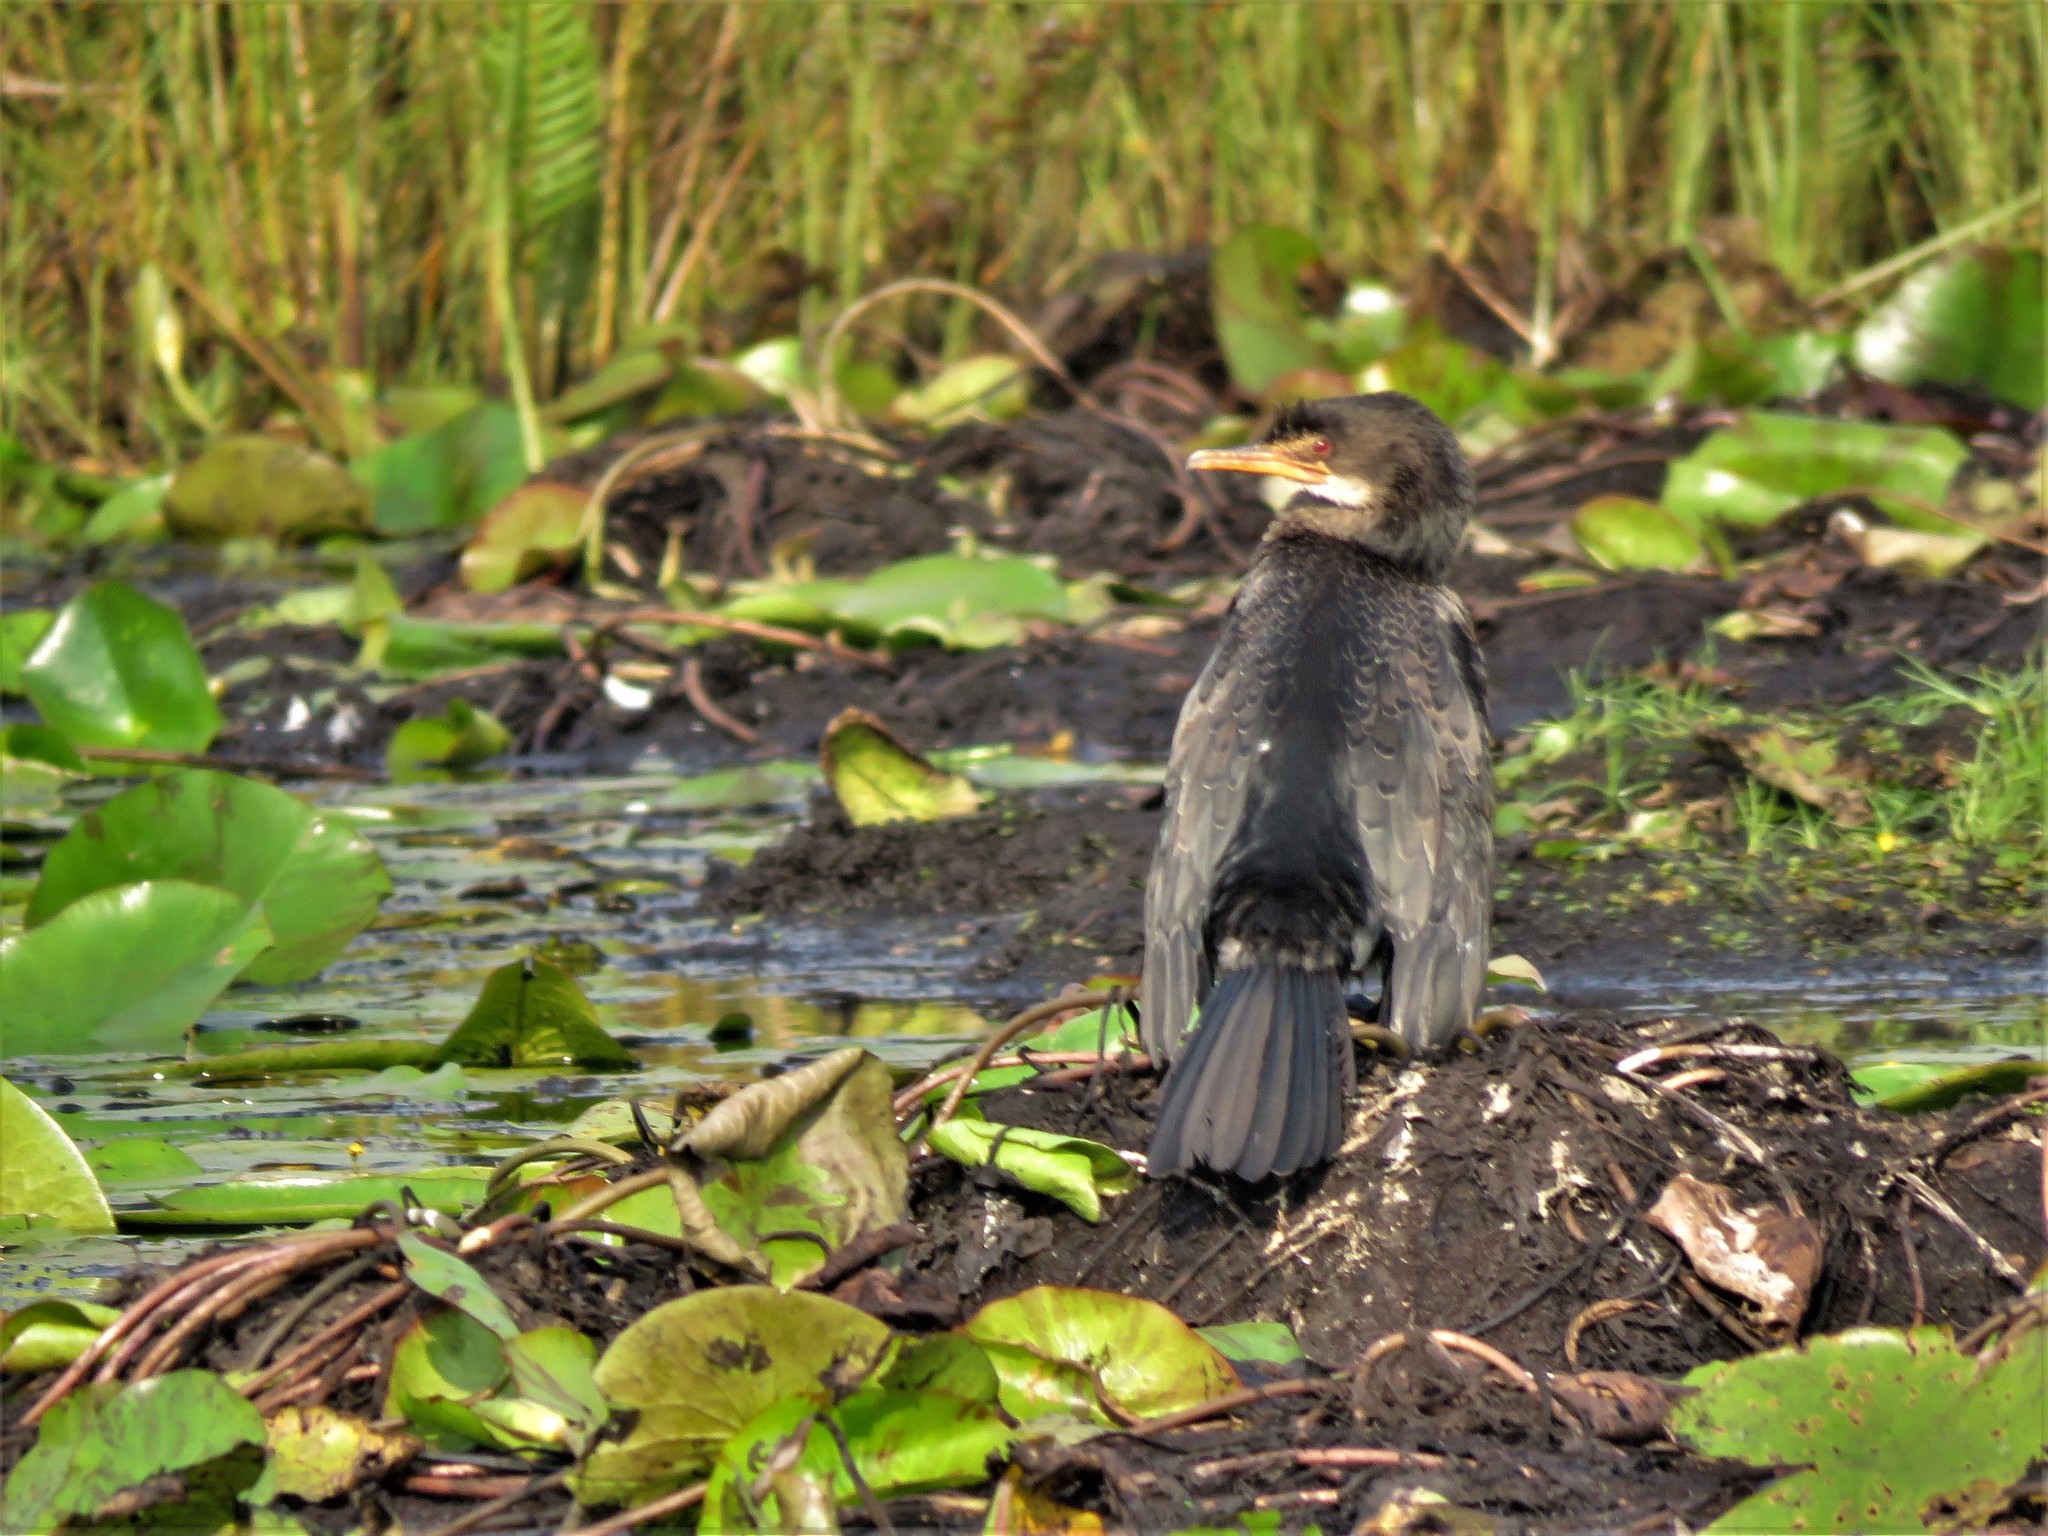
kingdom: Animalia
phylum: Chordata
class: Aves
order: Suliformes
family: Phalacrocoracidae
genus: Microcarbo
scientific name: Microcarbo africanus
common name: Long-tailed cormorant
